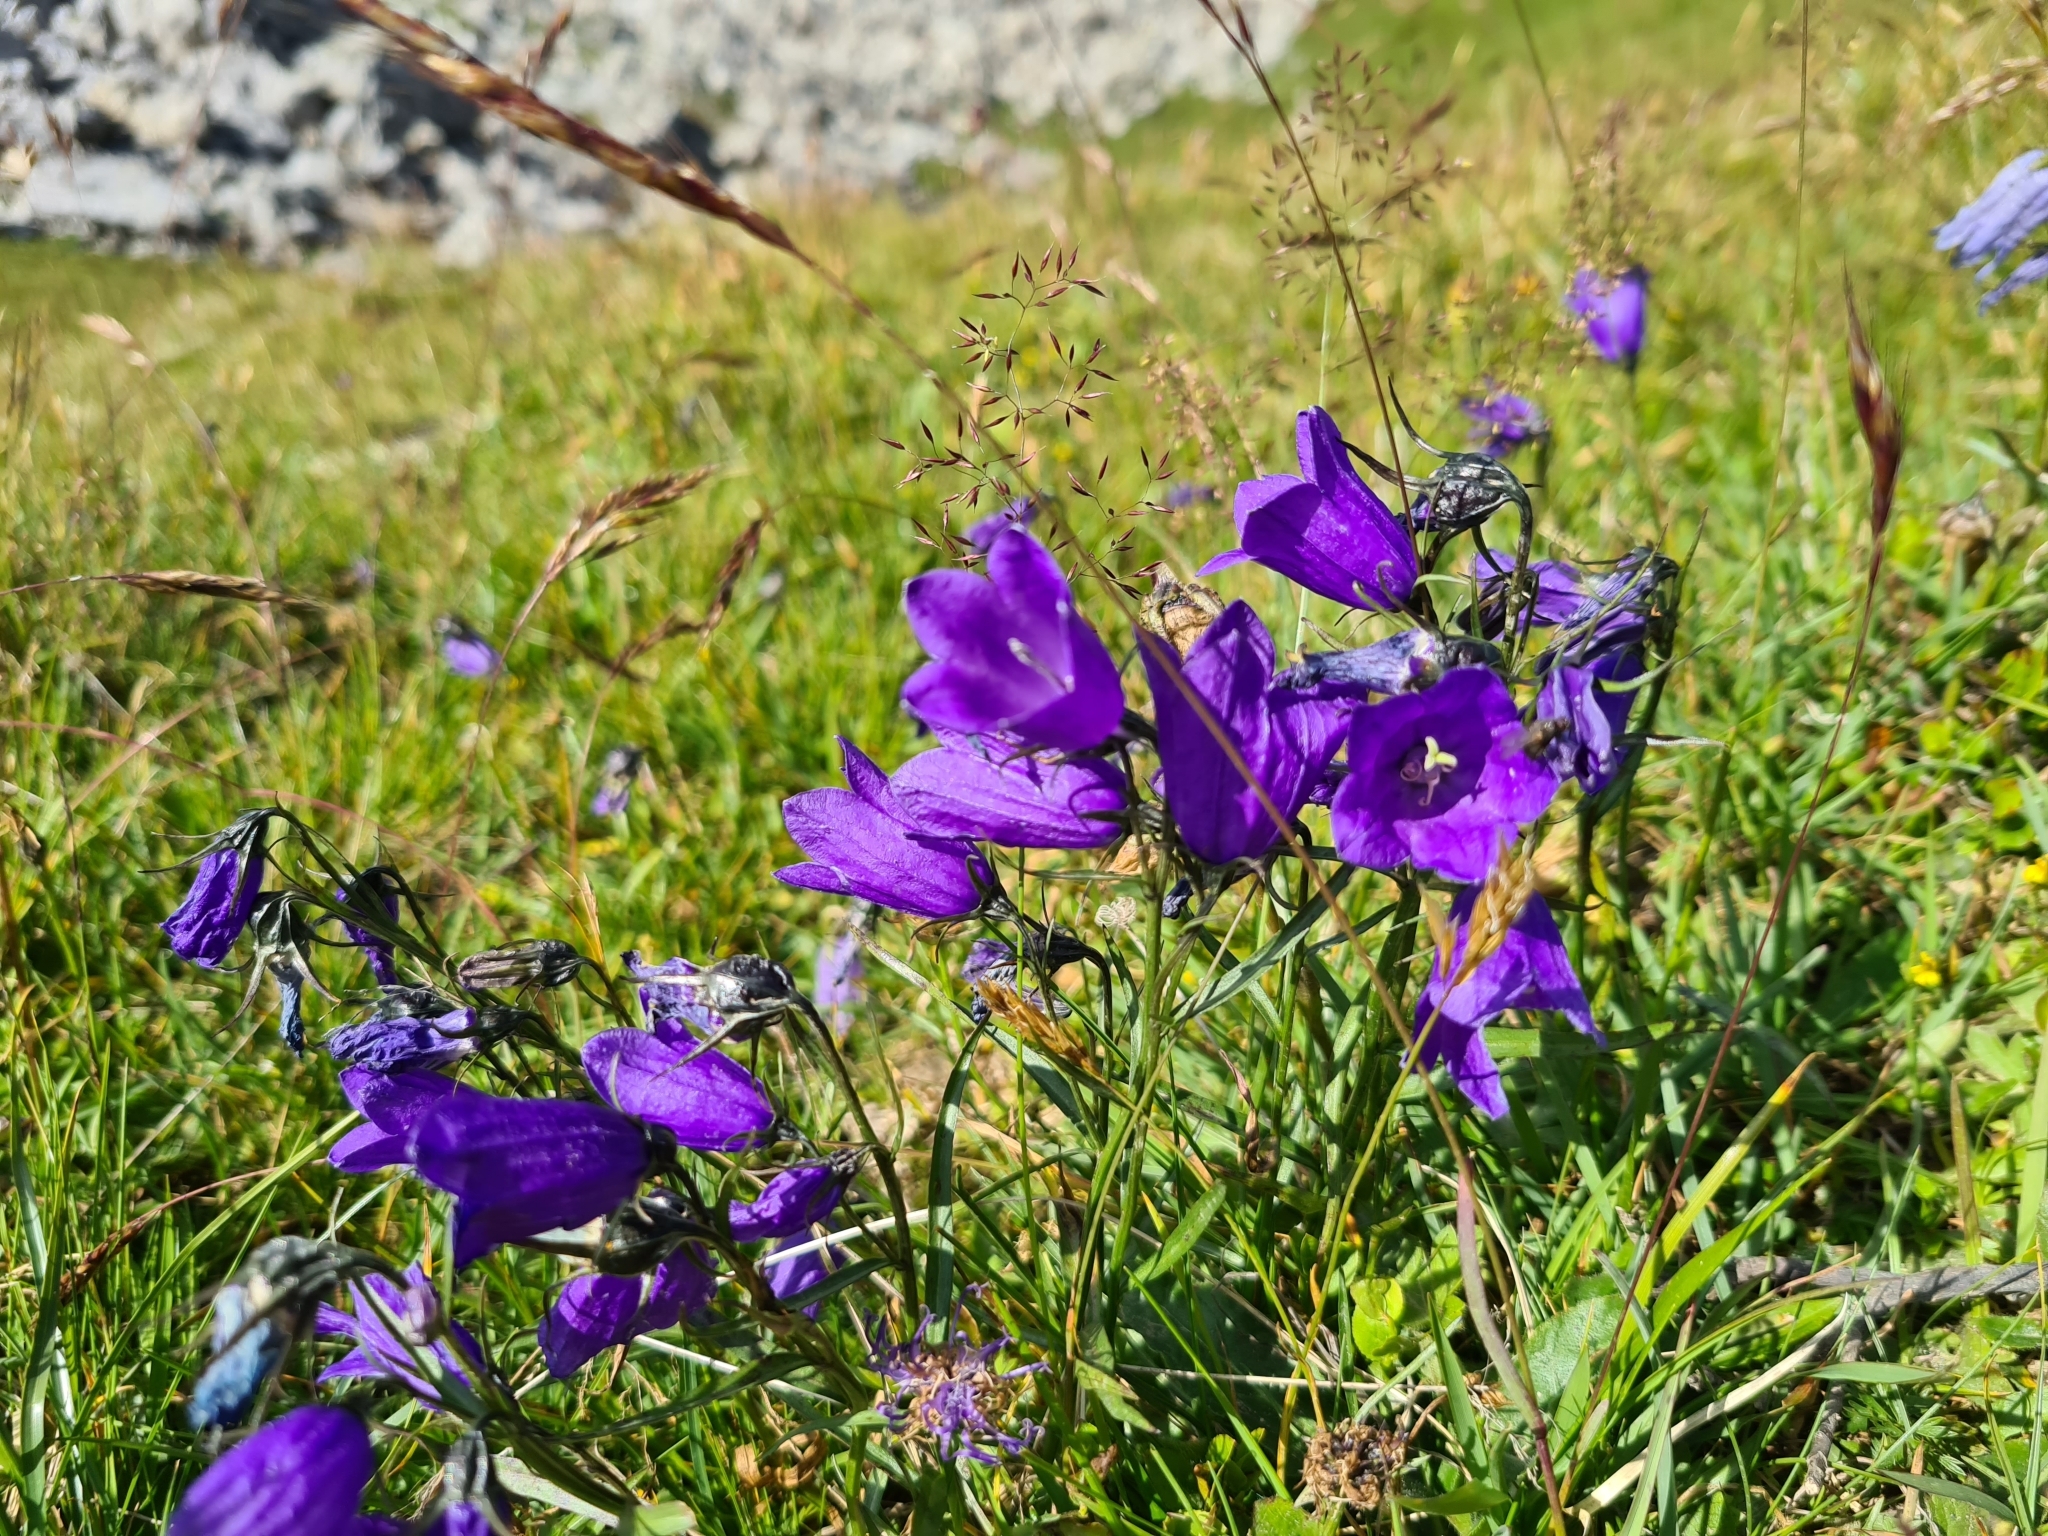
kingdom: Plantae
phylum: Tracheophyta
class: Magnoliopsida
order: Asterales
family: Campanulaceae
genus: Campanula
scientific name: Campanula scheuchzeri
